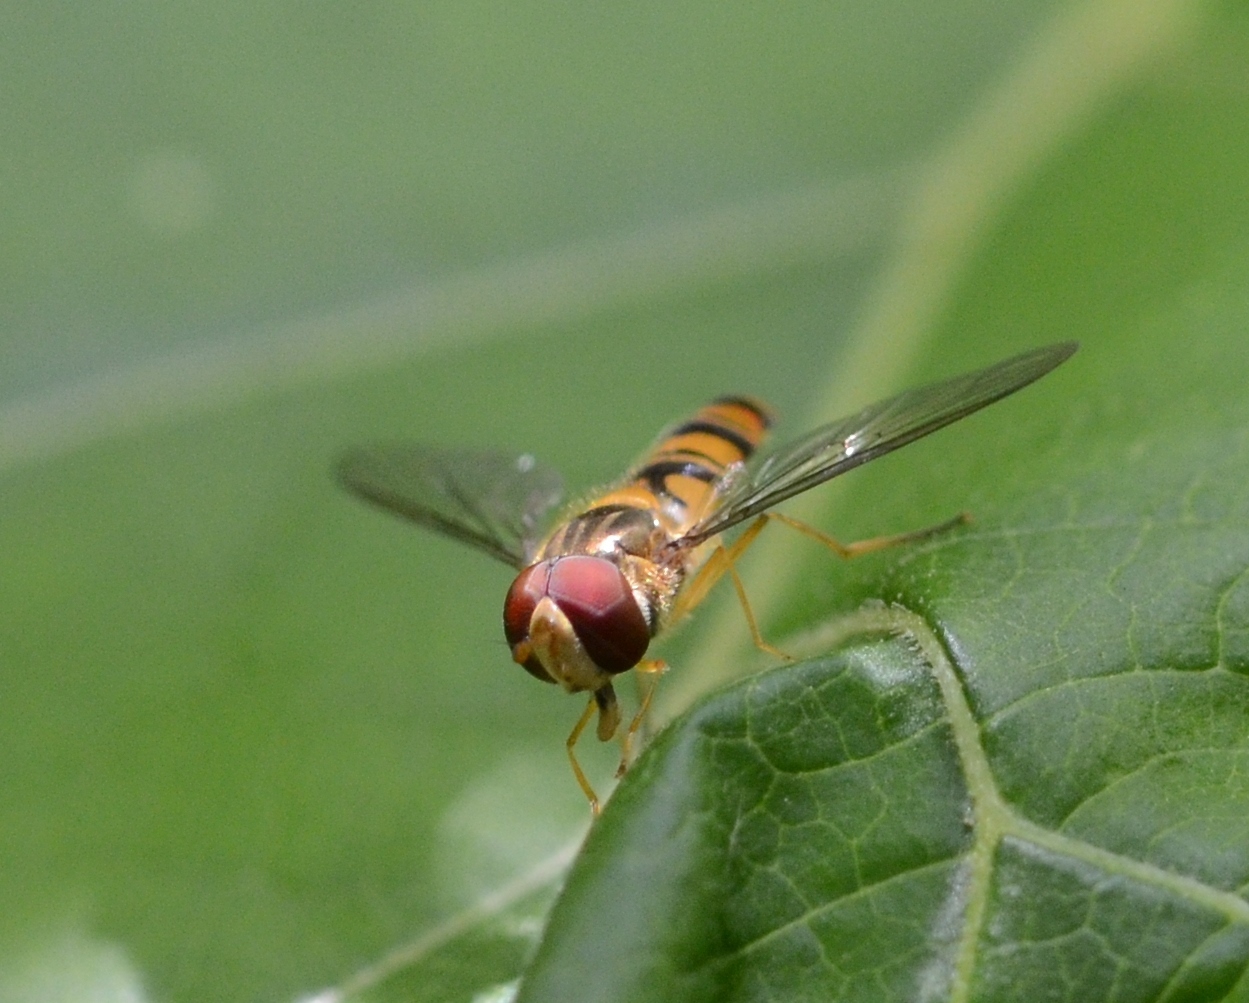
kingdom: Animalia
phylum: Arthropoda
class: Insecta
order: Diptera
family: Syrphidae
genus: Episyrphus
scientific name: Episyrphus balteatus
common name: Marmalade hoverfly
